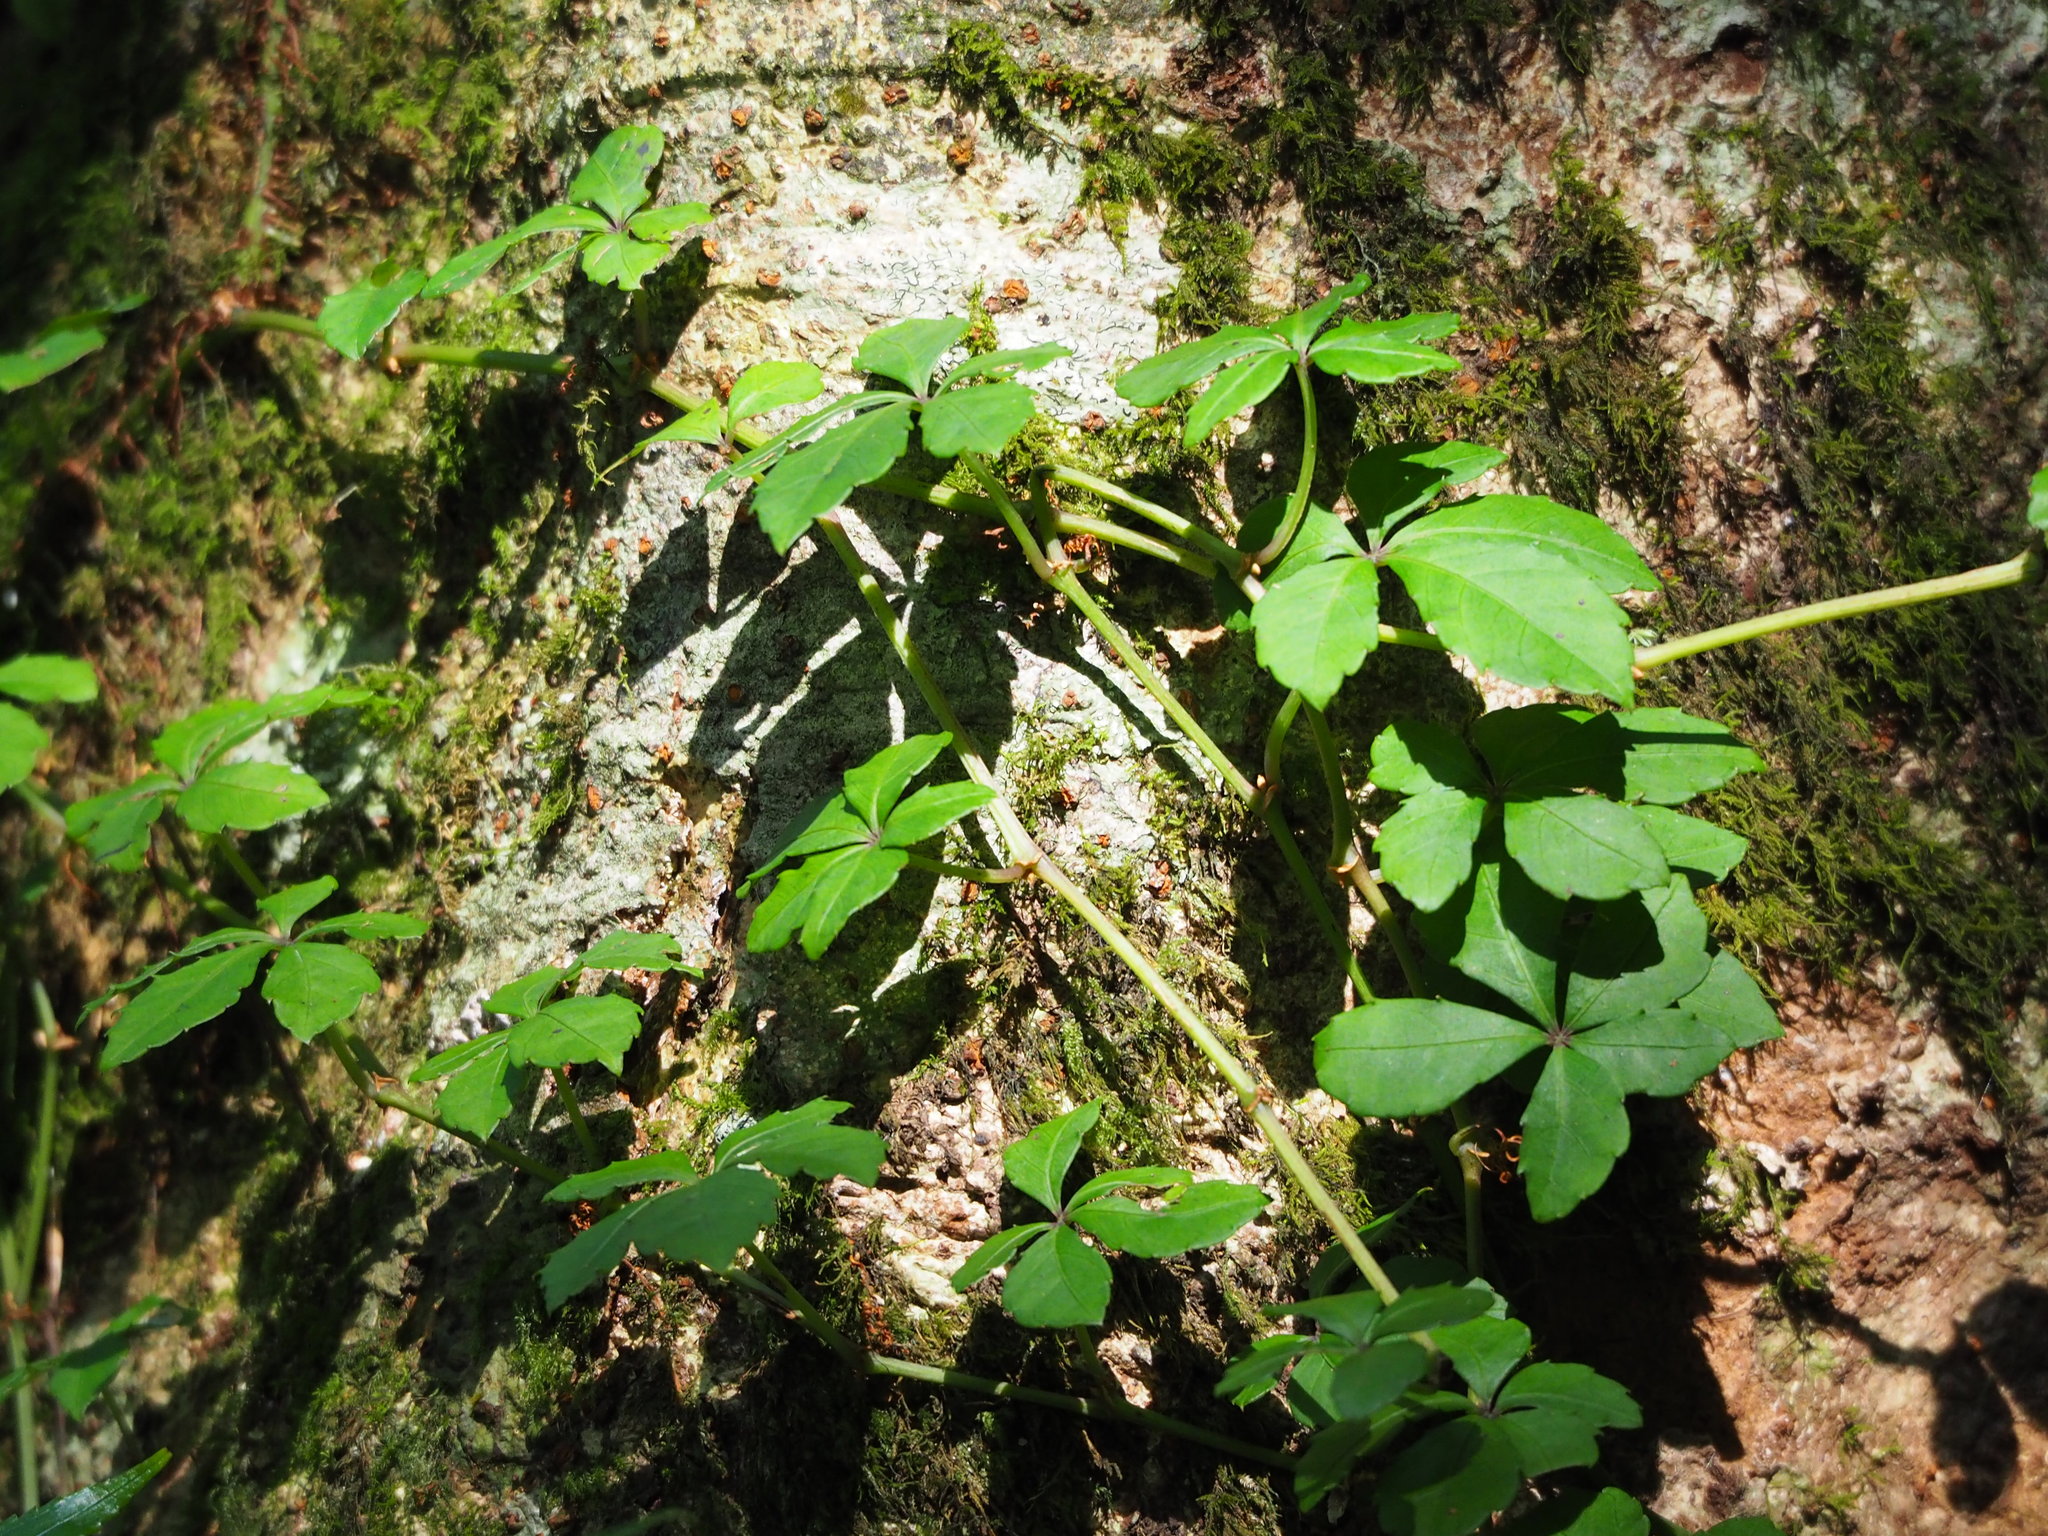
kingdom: Plantae
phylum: Tracheophyta
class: Magnoliopsida
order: Vitales
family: Vitaceae
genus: Tetrastigma
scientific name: Tetrastigma obtectum
